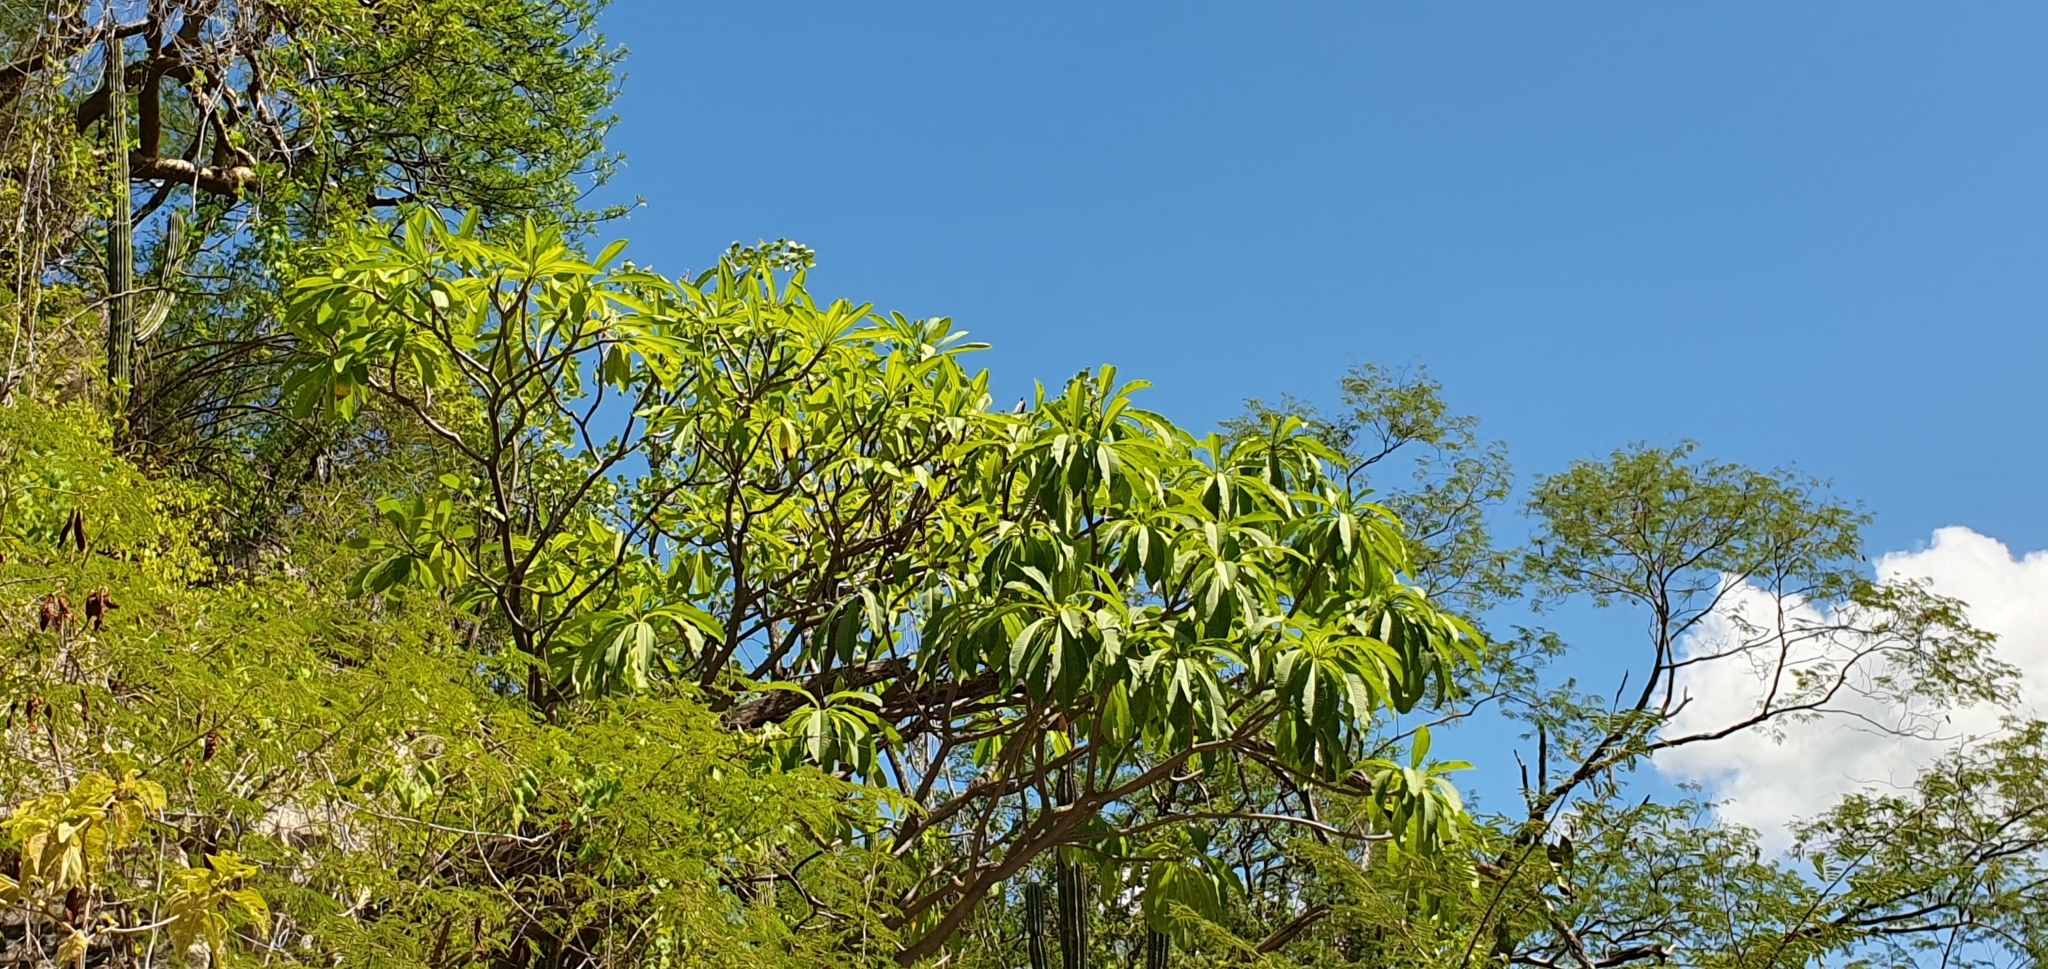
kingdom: Plantae
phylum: Tracheophyta
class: Magnoliopsida
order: Gentianales
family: Apocynaceae
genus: Plumeria
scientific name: Plumeria rubra
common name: Pagoda-tree
